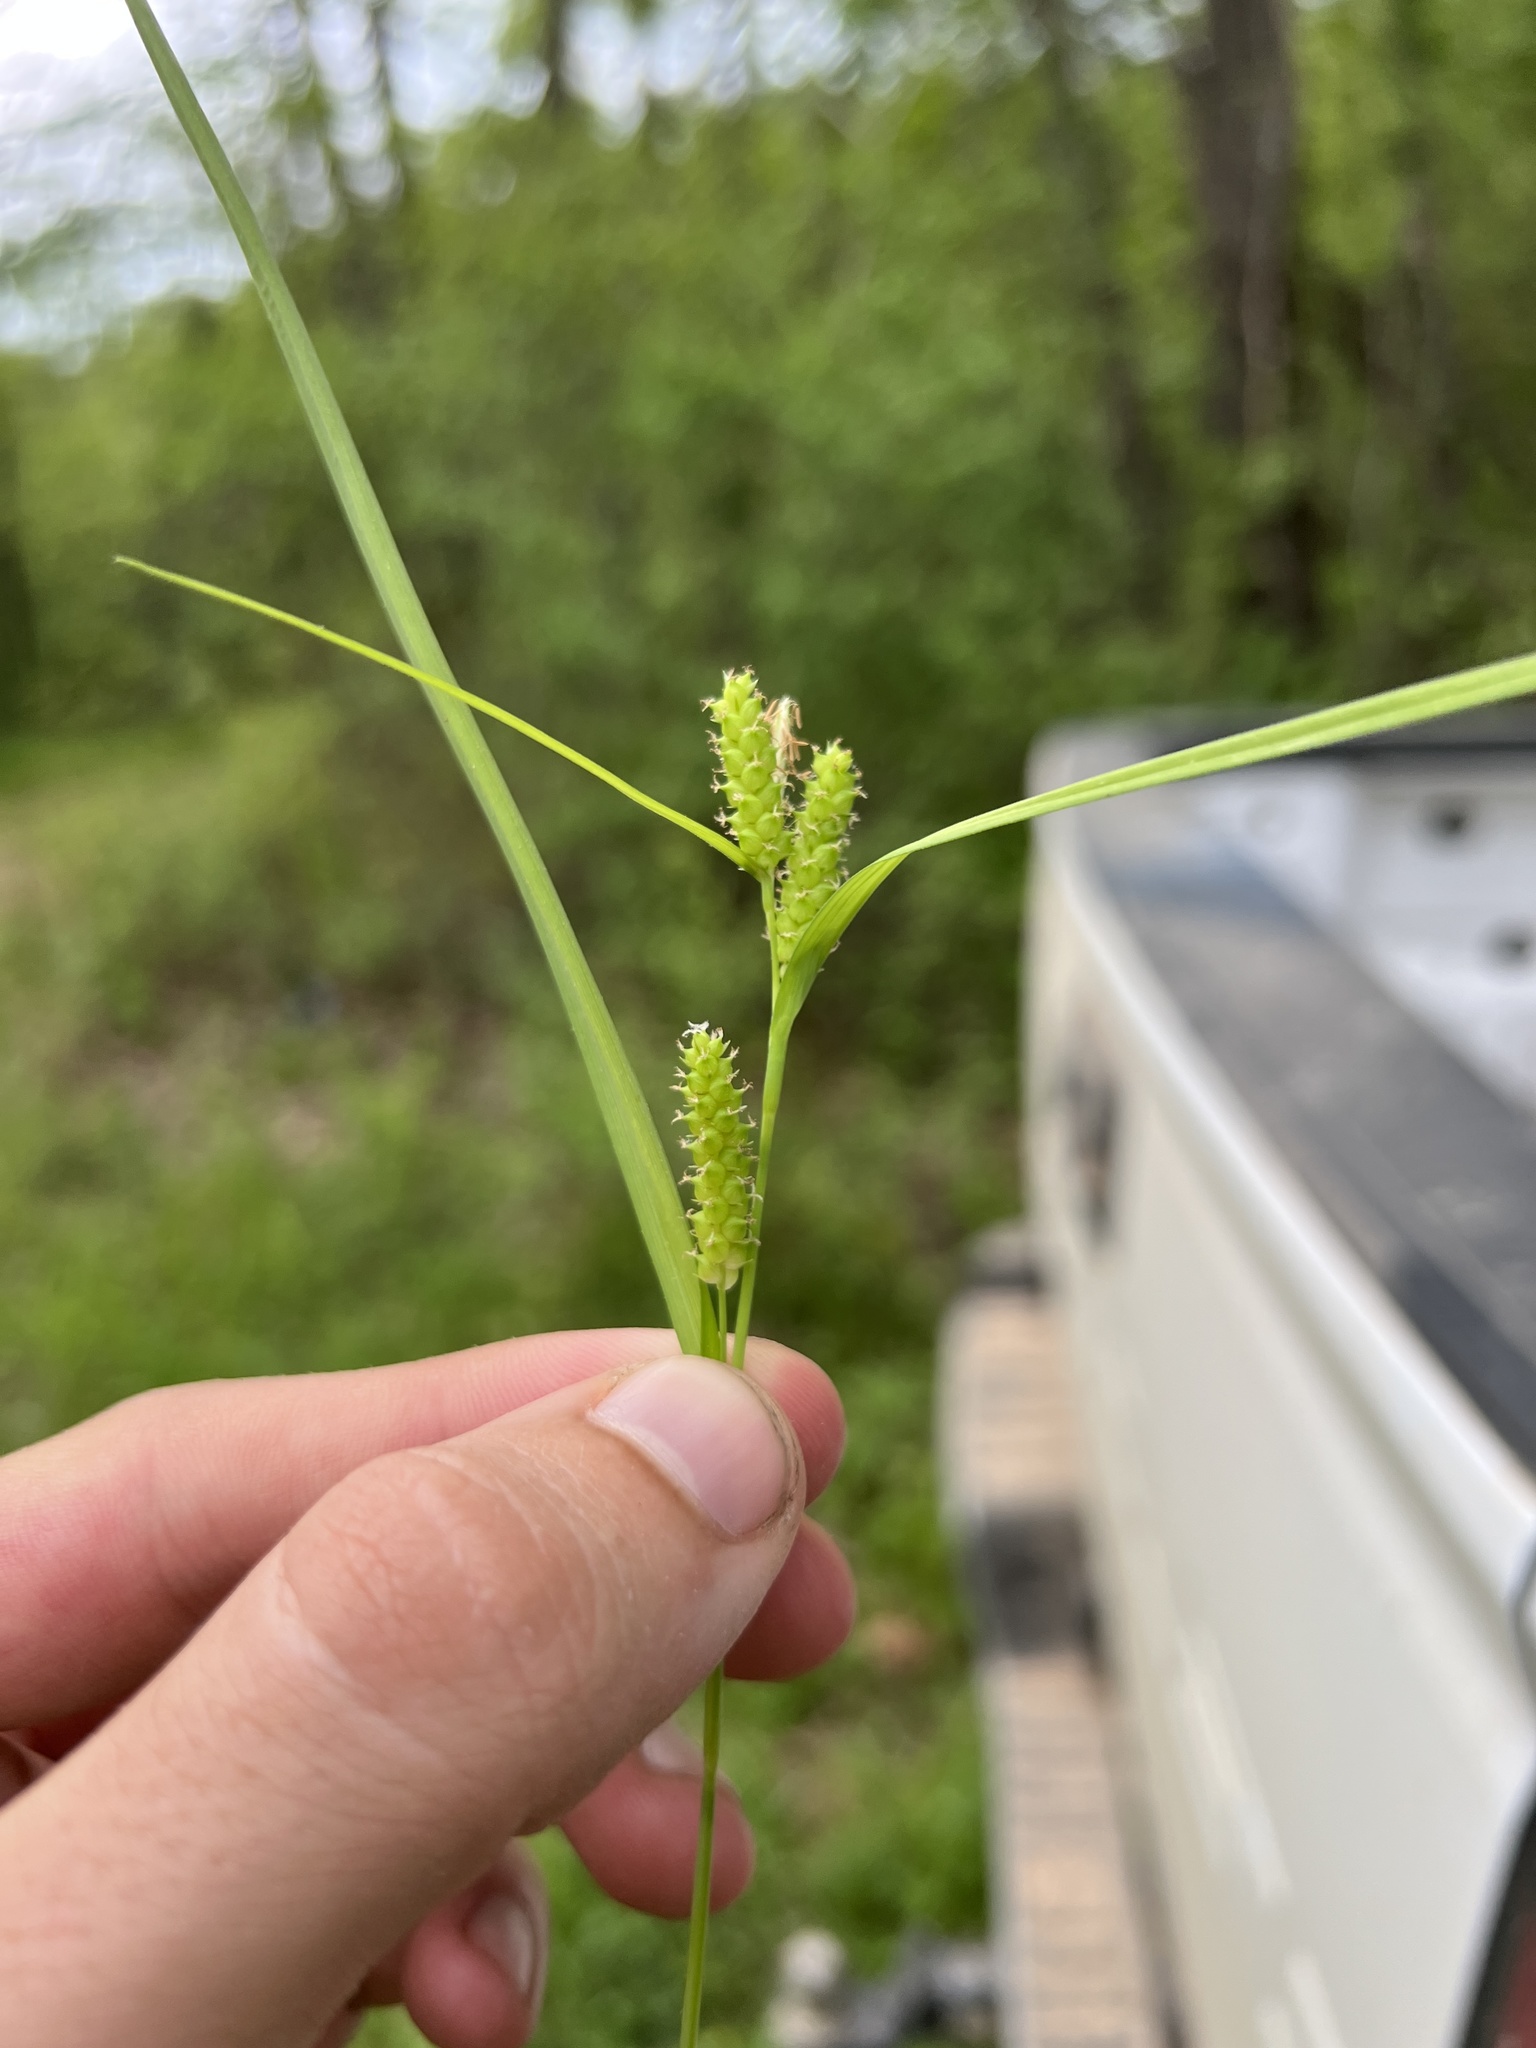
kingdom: Plantae
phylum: Tracheophyta
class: Liliopsida
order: Poales
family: Cyperaceae
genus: Carex
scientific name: Carex granularis
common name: Granular sedge
